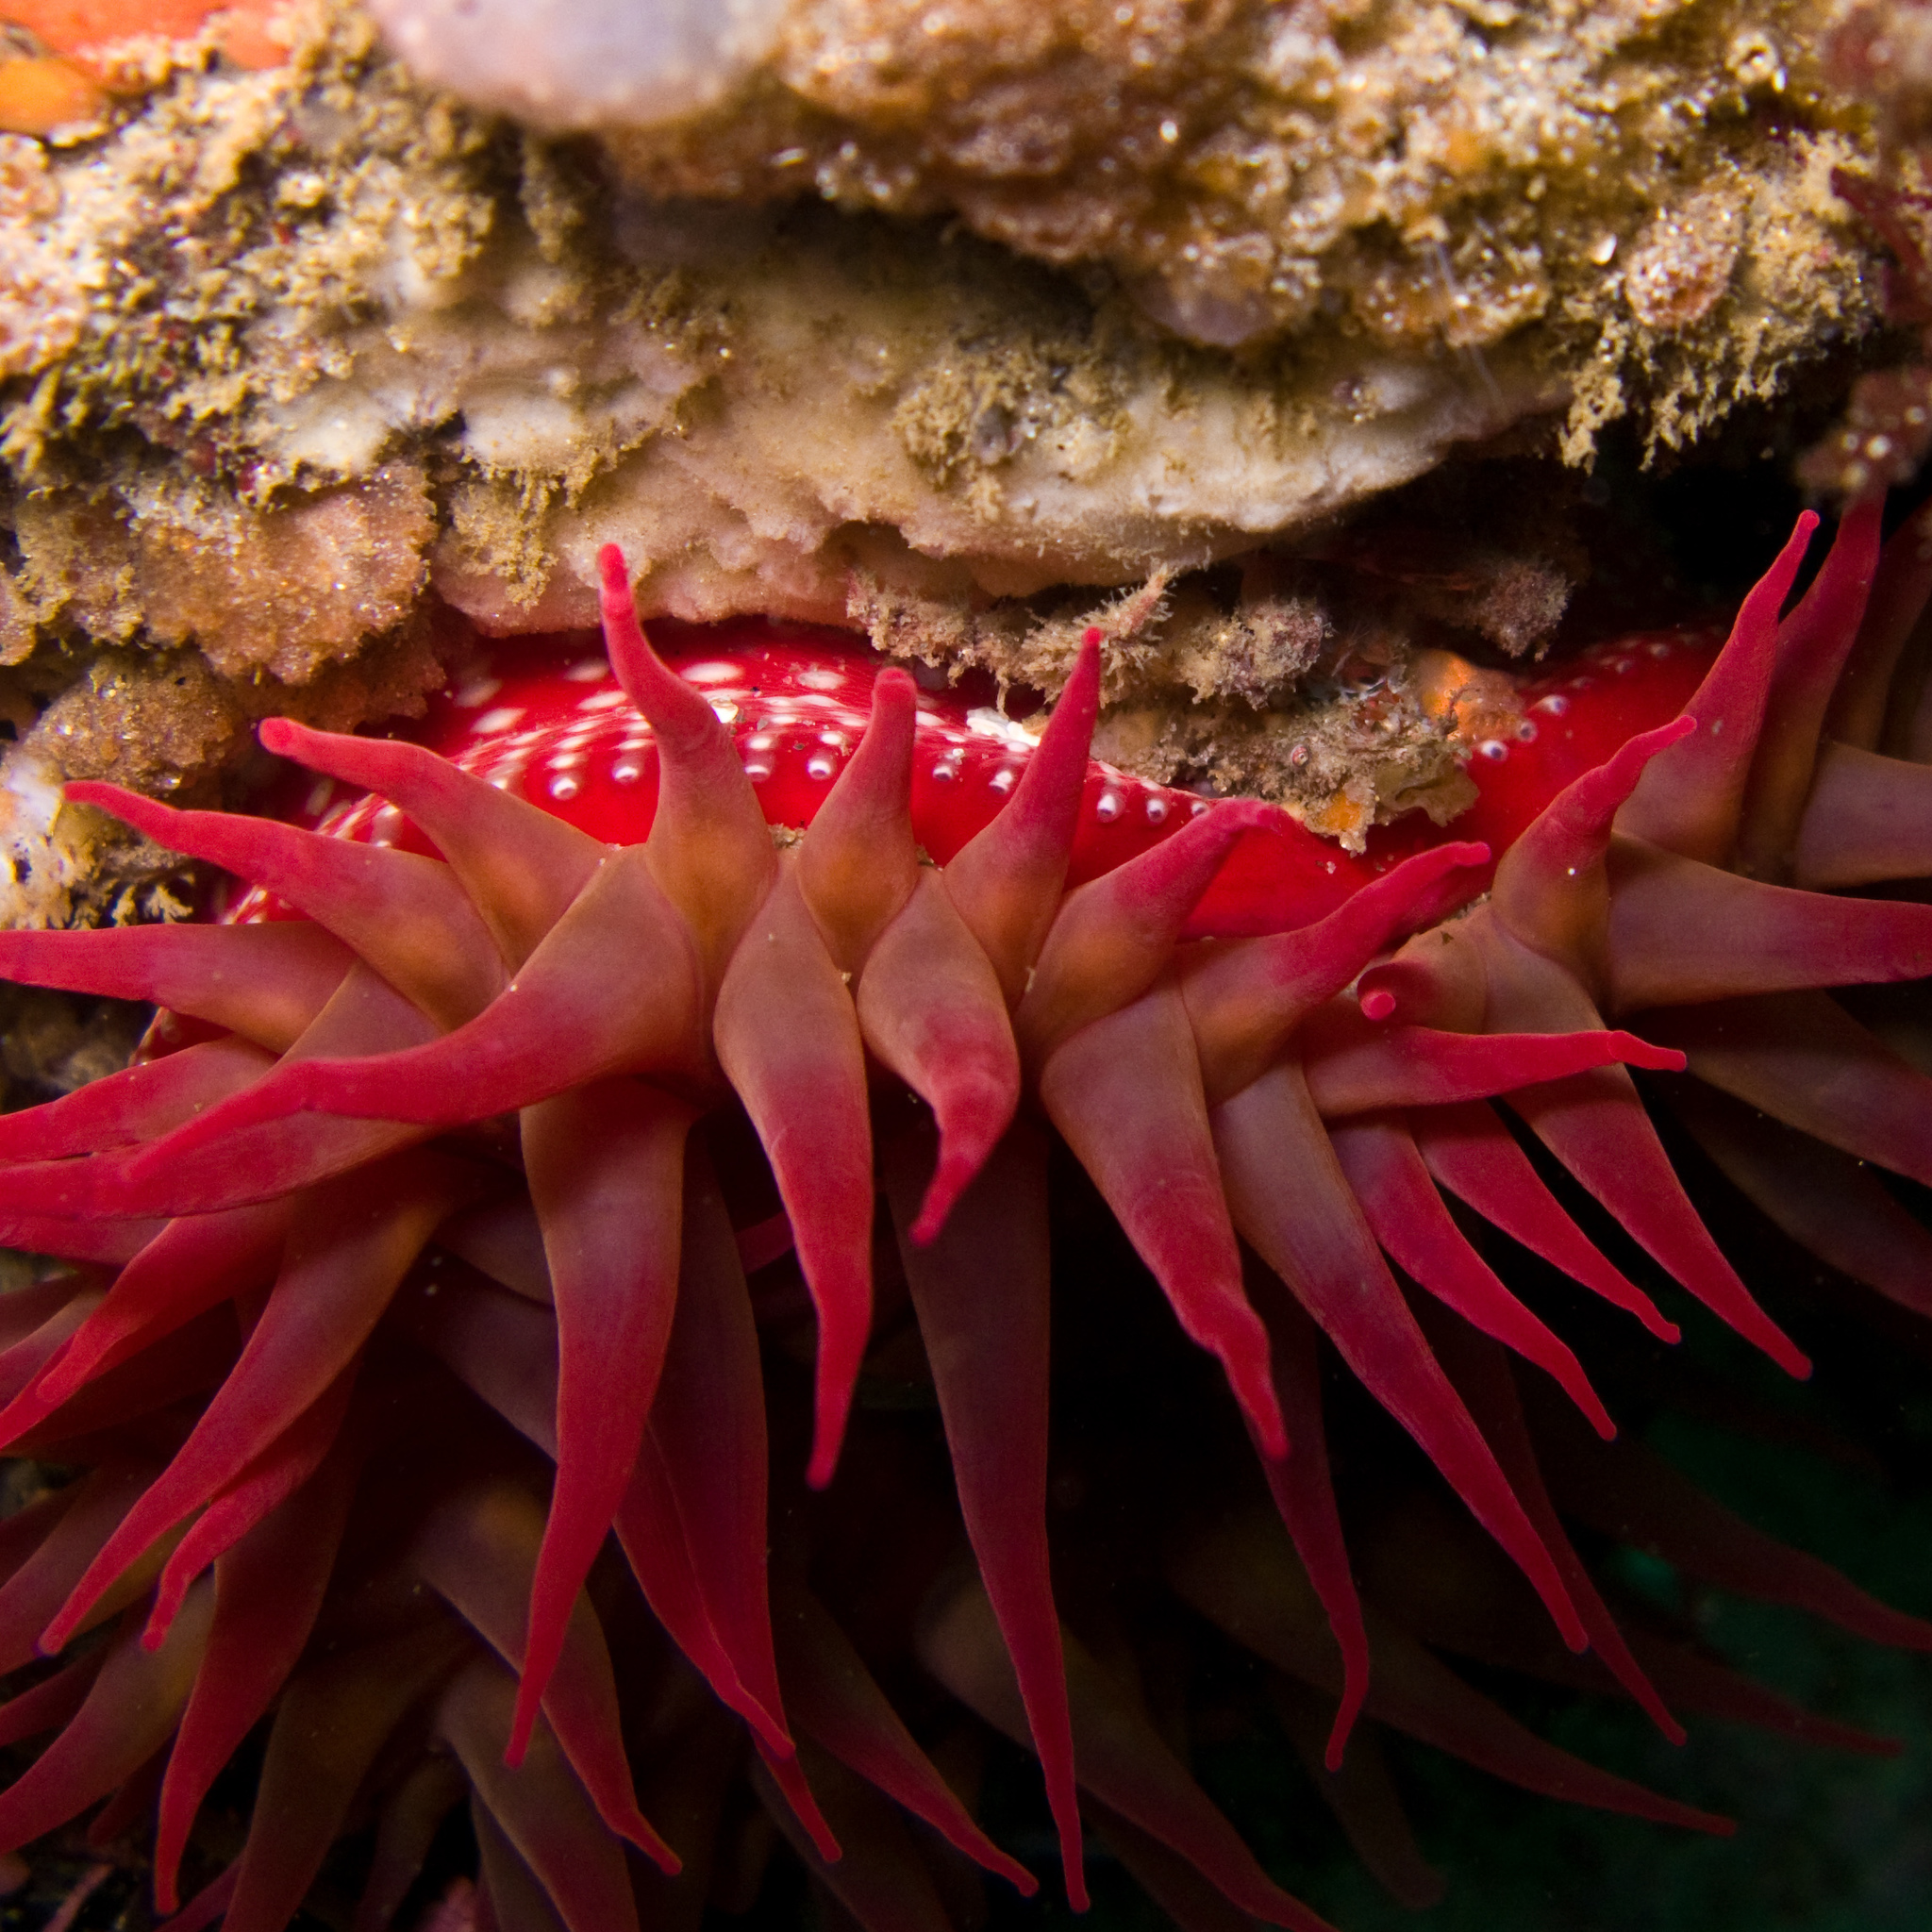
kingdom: Animalia
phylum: Cnidaria
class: Anthozoa
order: Actiniaria
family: Actiniidae
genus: Cribrinopsis
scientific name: Cribrinopsis albopunctata
